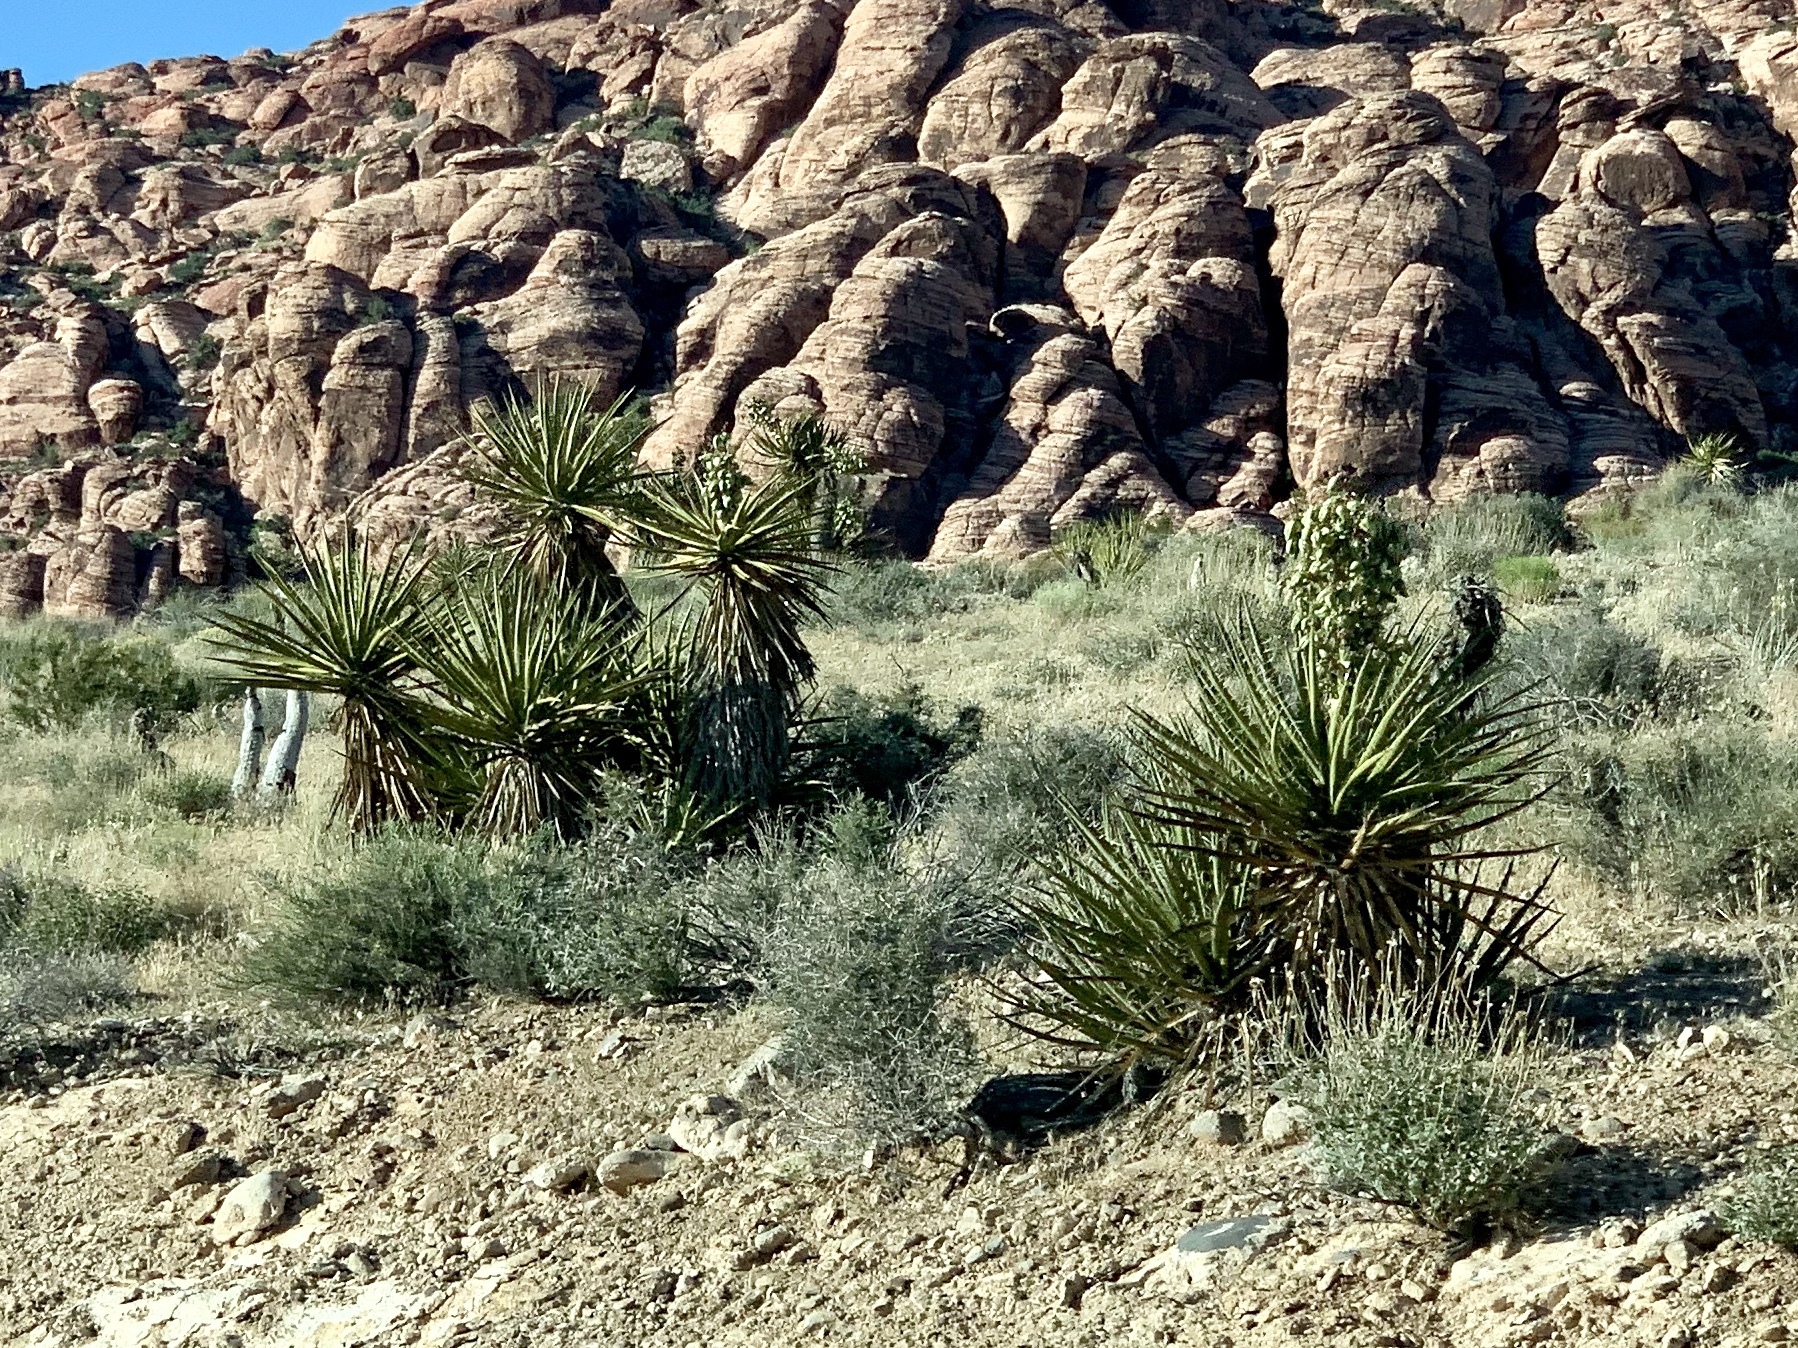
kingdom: Plantae
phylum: Tracheophyta
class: Liliopsida
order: Asparagales
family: Asparagaceae
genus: Yucca
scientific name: Yucca schidigera
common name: Mojave yucca
